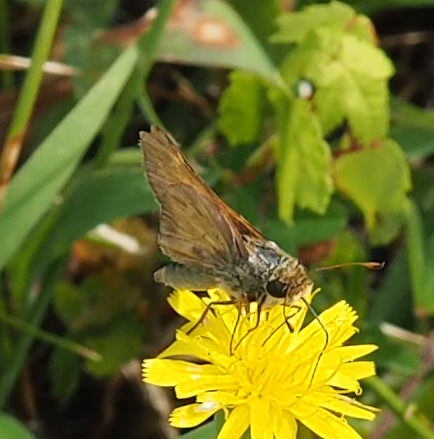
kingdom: Animalia
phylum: Arthropoda
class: Insecta
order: Lepidoptera
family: Hesperiidae
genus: Atalopedes
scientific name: Atalopedes
